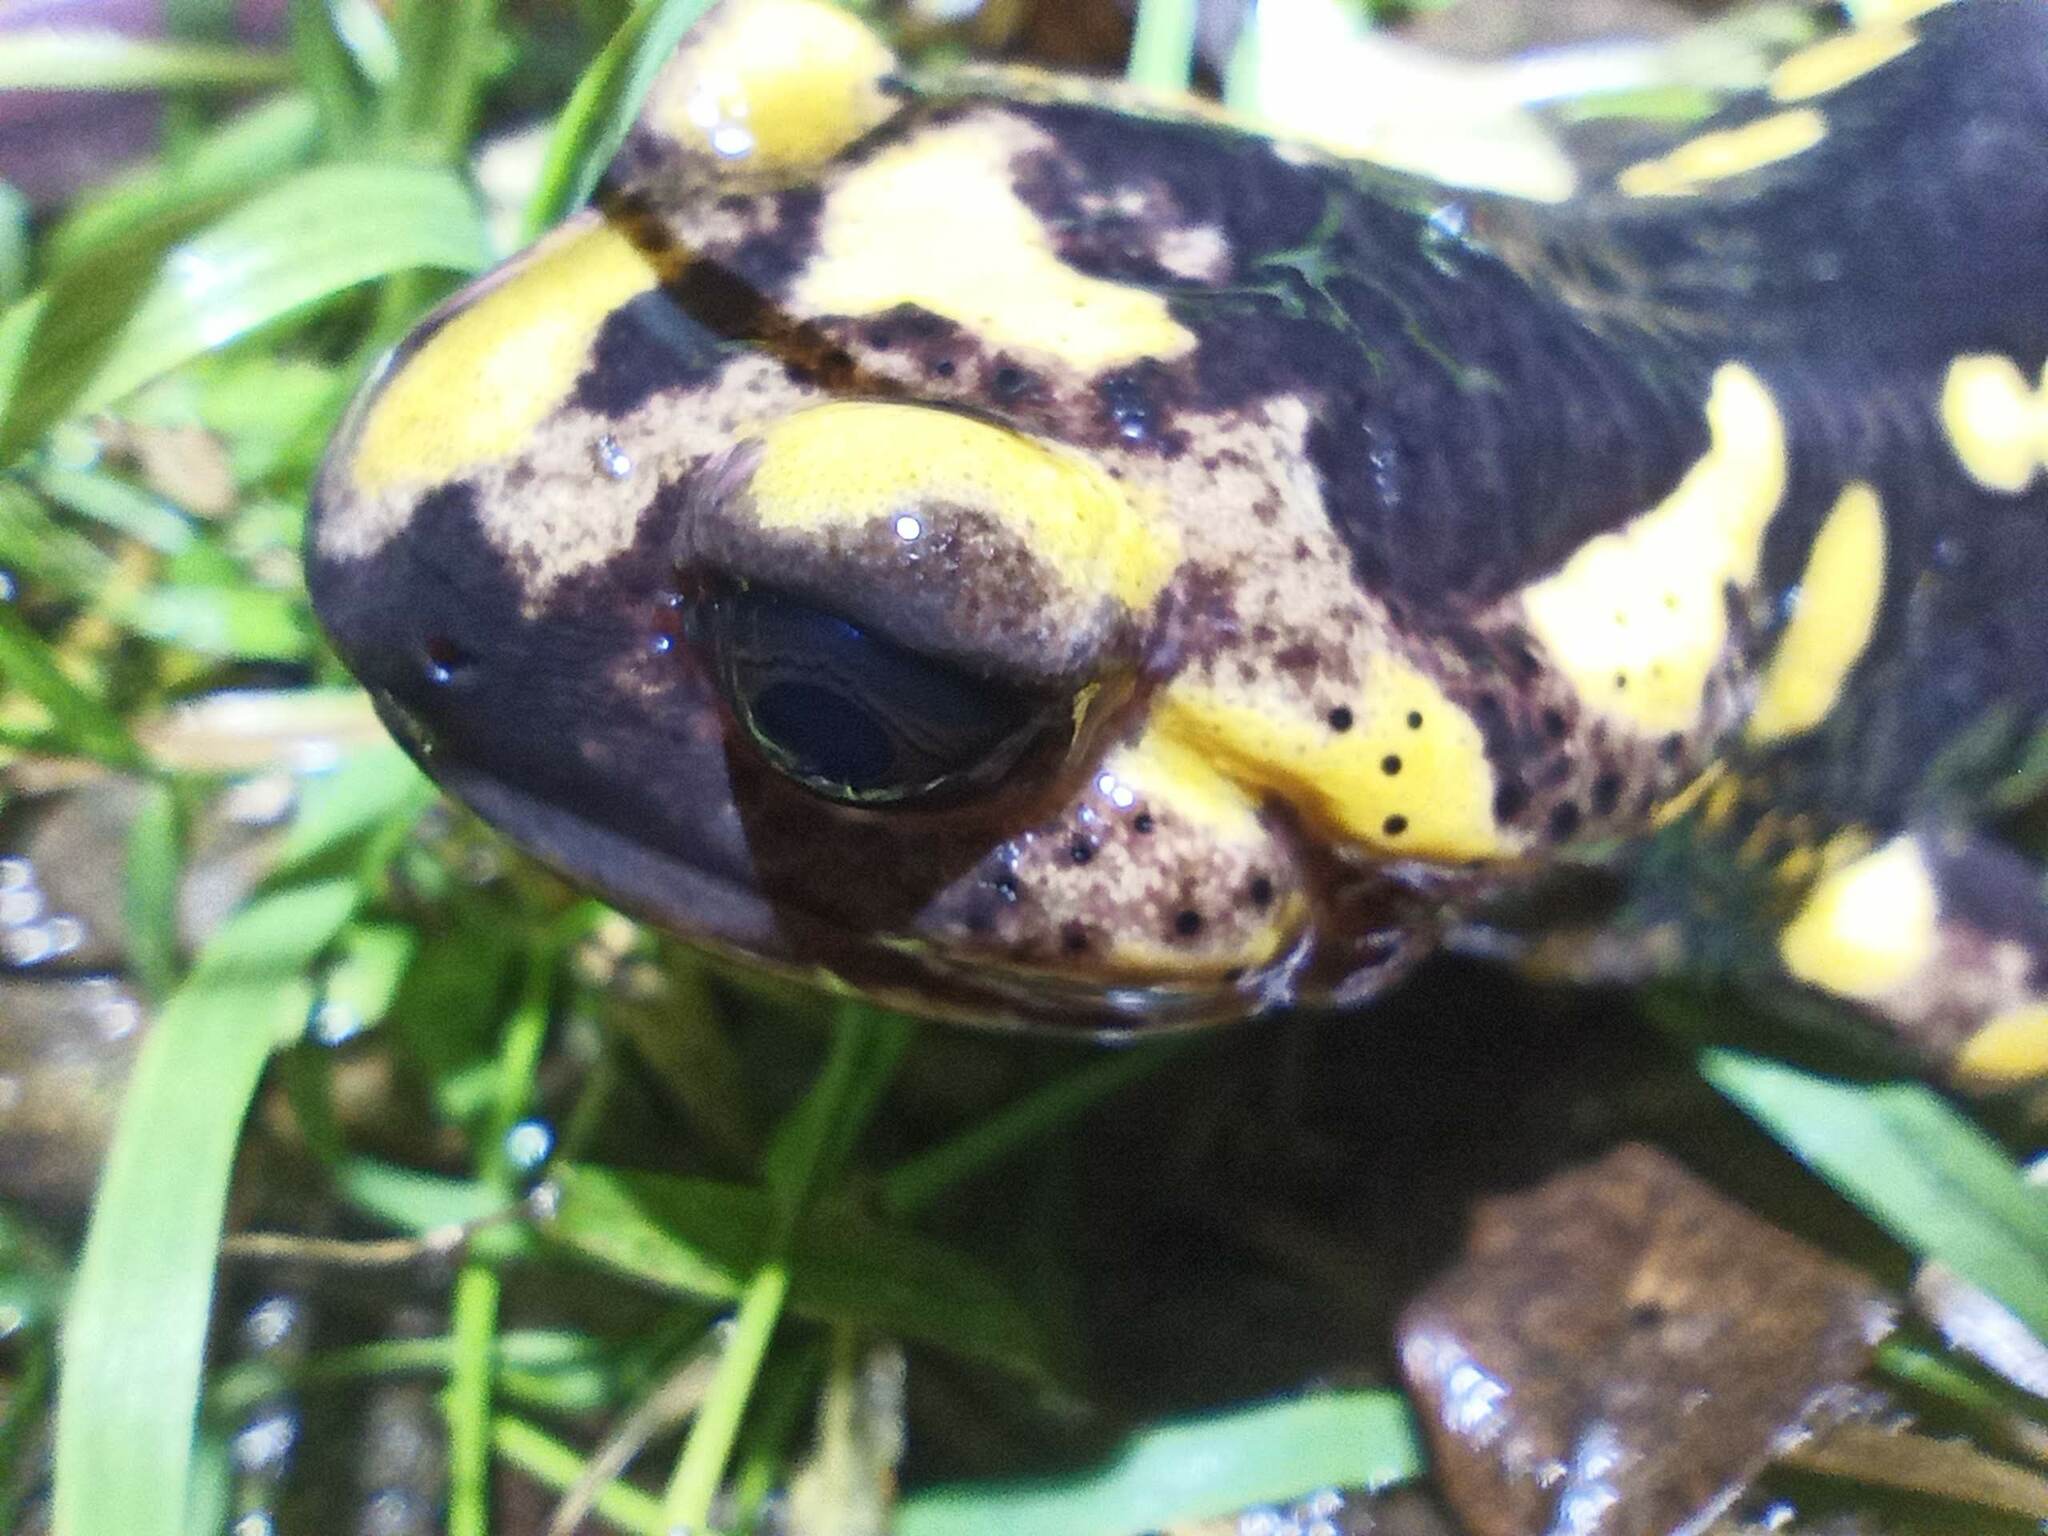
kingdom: Animalia
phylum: Chordata
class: Amphibia
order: Caudata
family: Salamandridae
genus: Salamandra
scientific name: Salamandra salamandra
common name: Fire salamander
